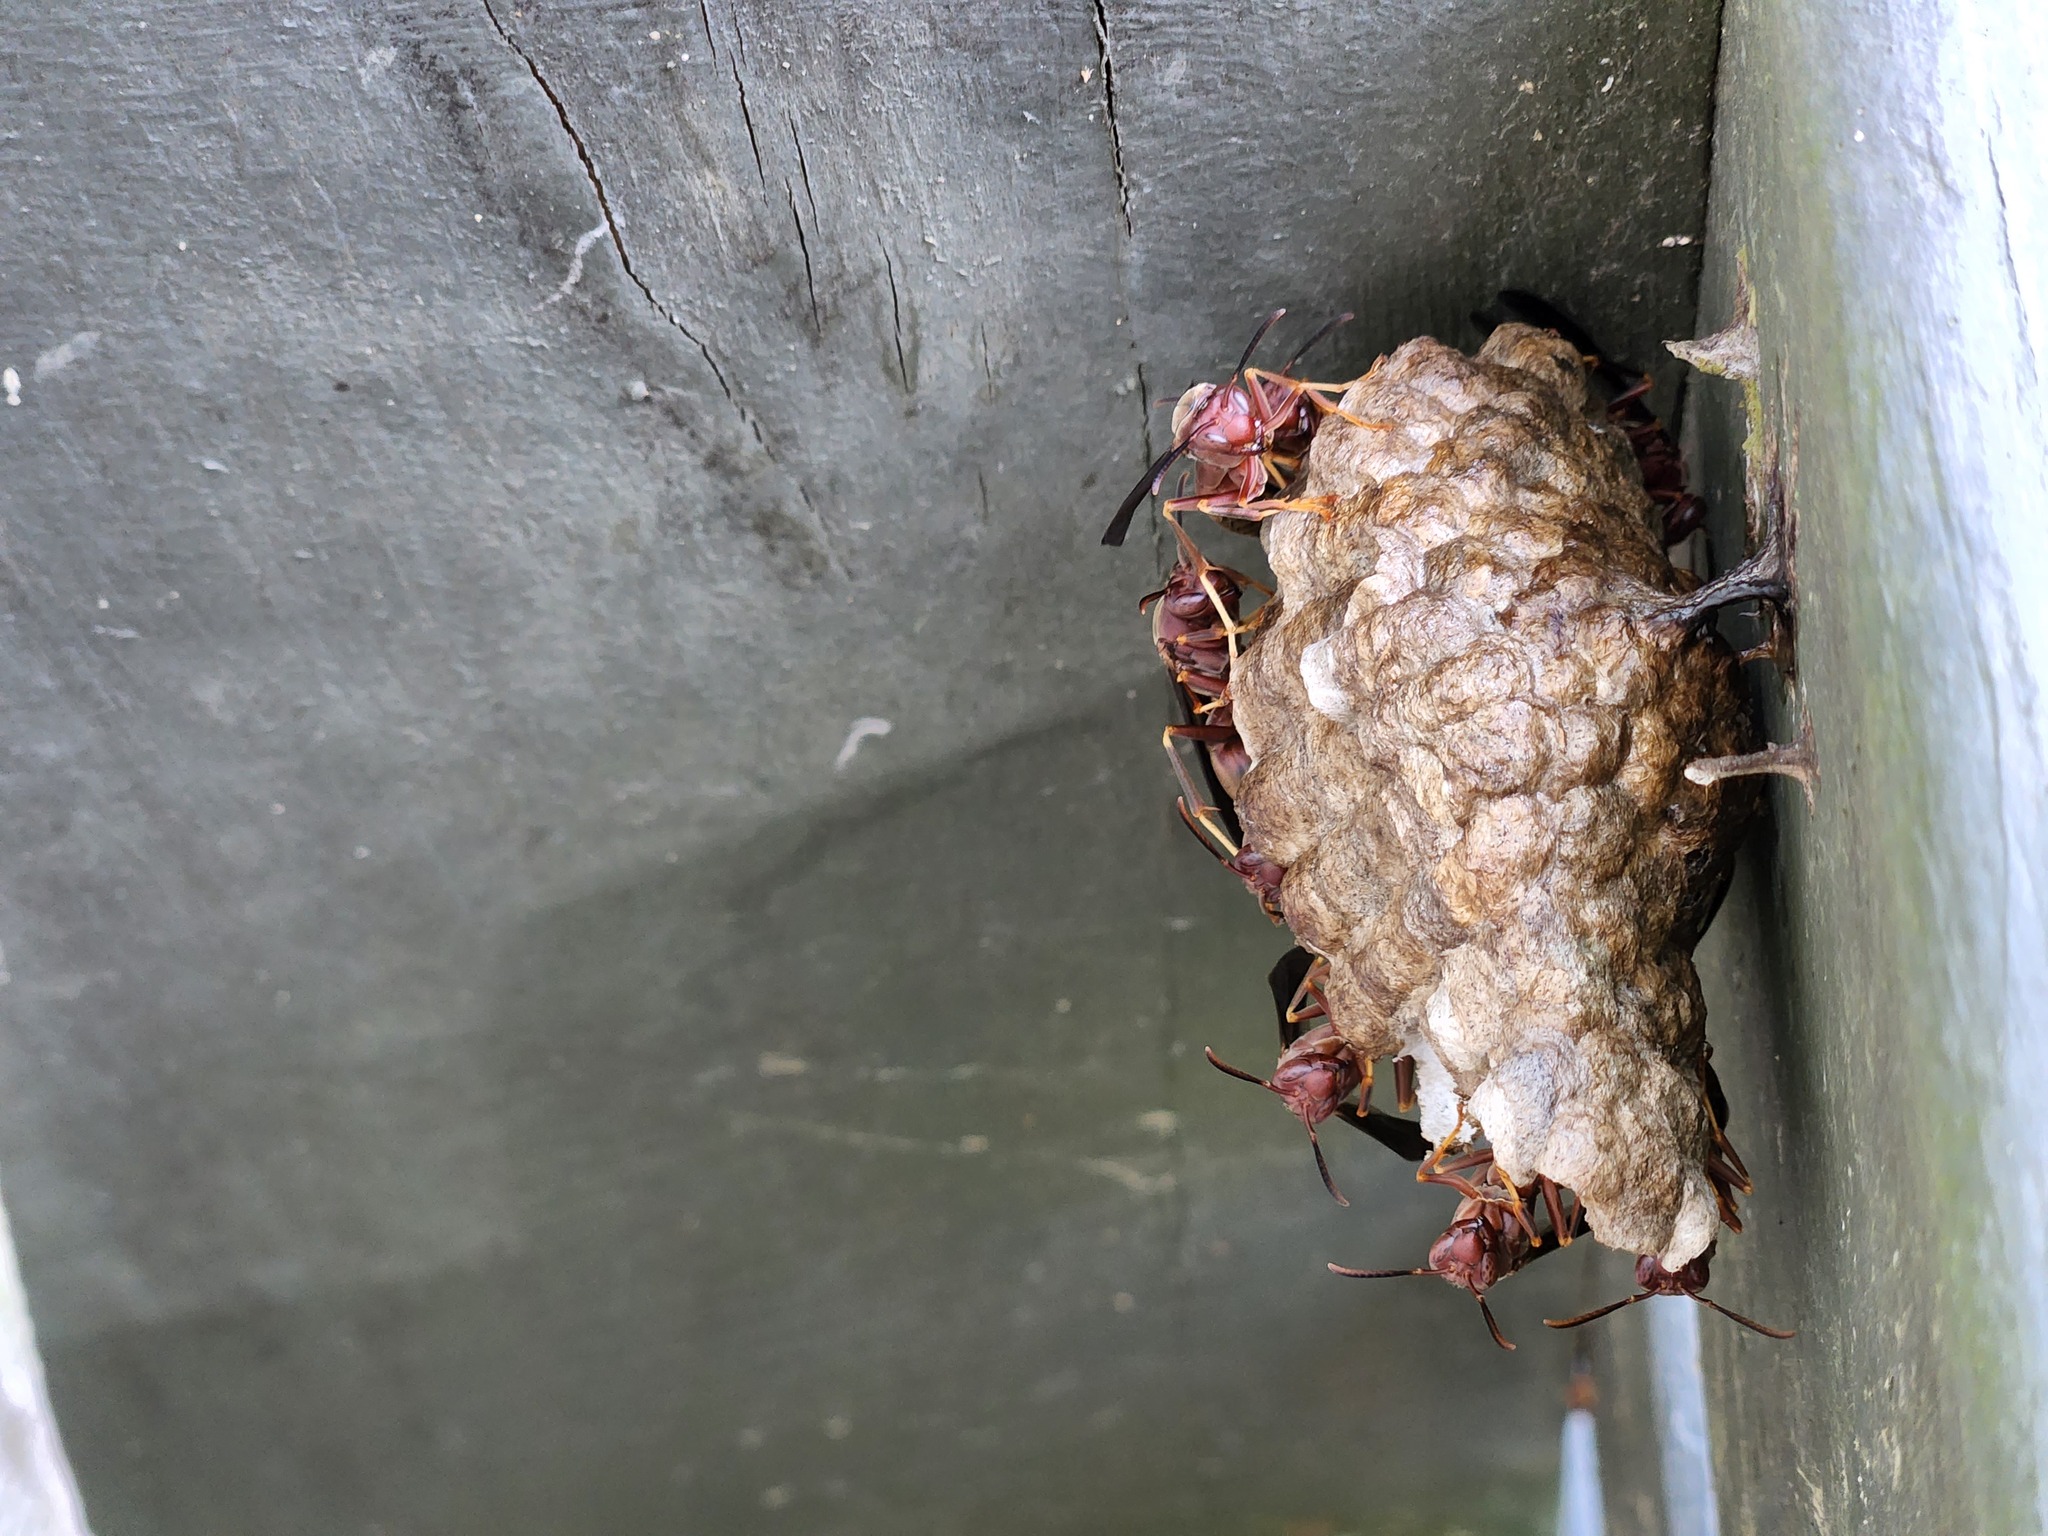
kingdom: Animalia
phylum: Arthropoda
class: Insecta
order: Hymenoptera
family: Eumenidae
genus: Polistes
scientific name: Polistes metricus
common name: Metric paper wasp
